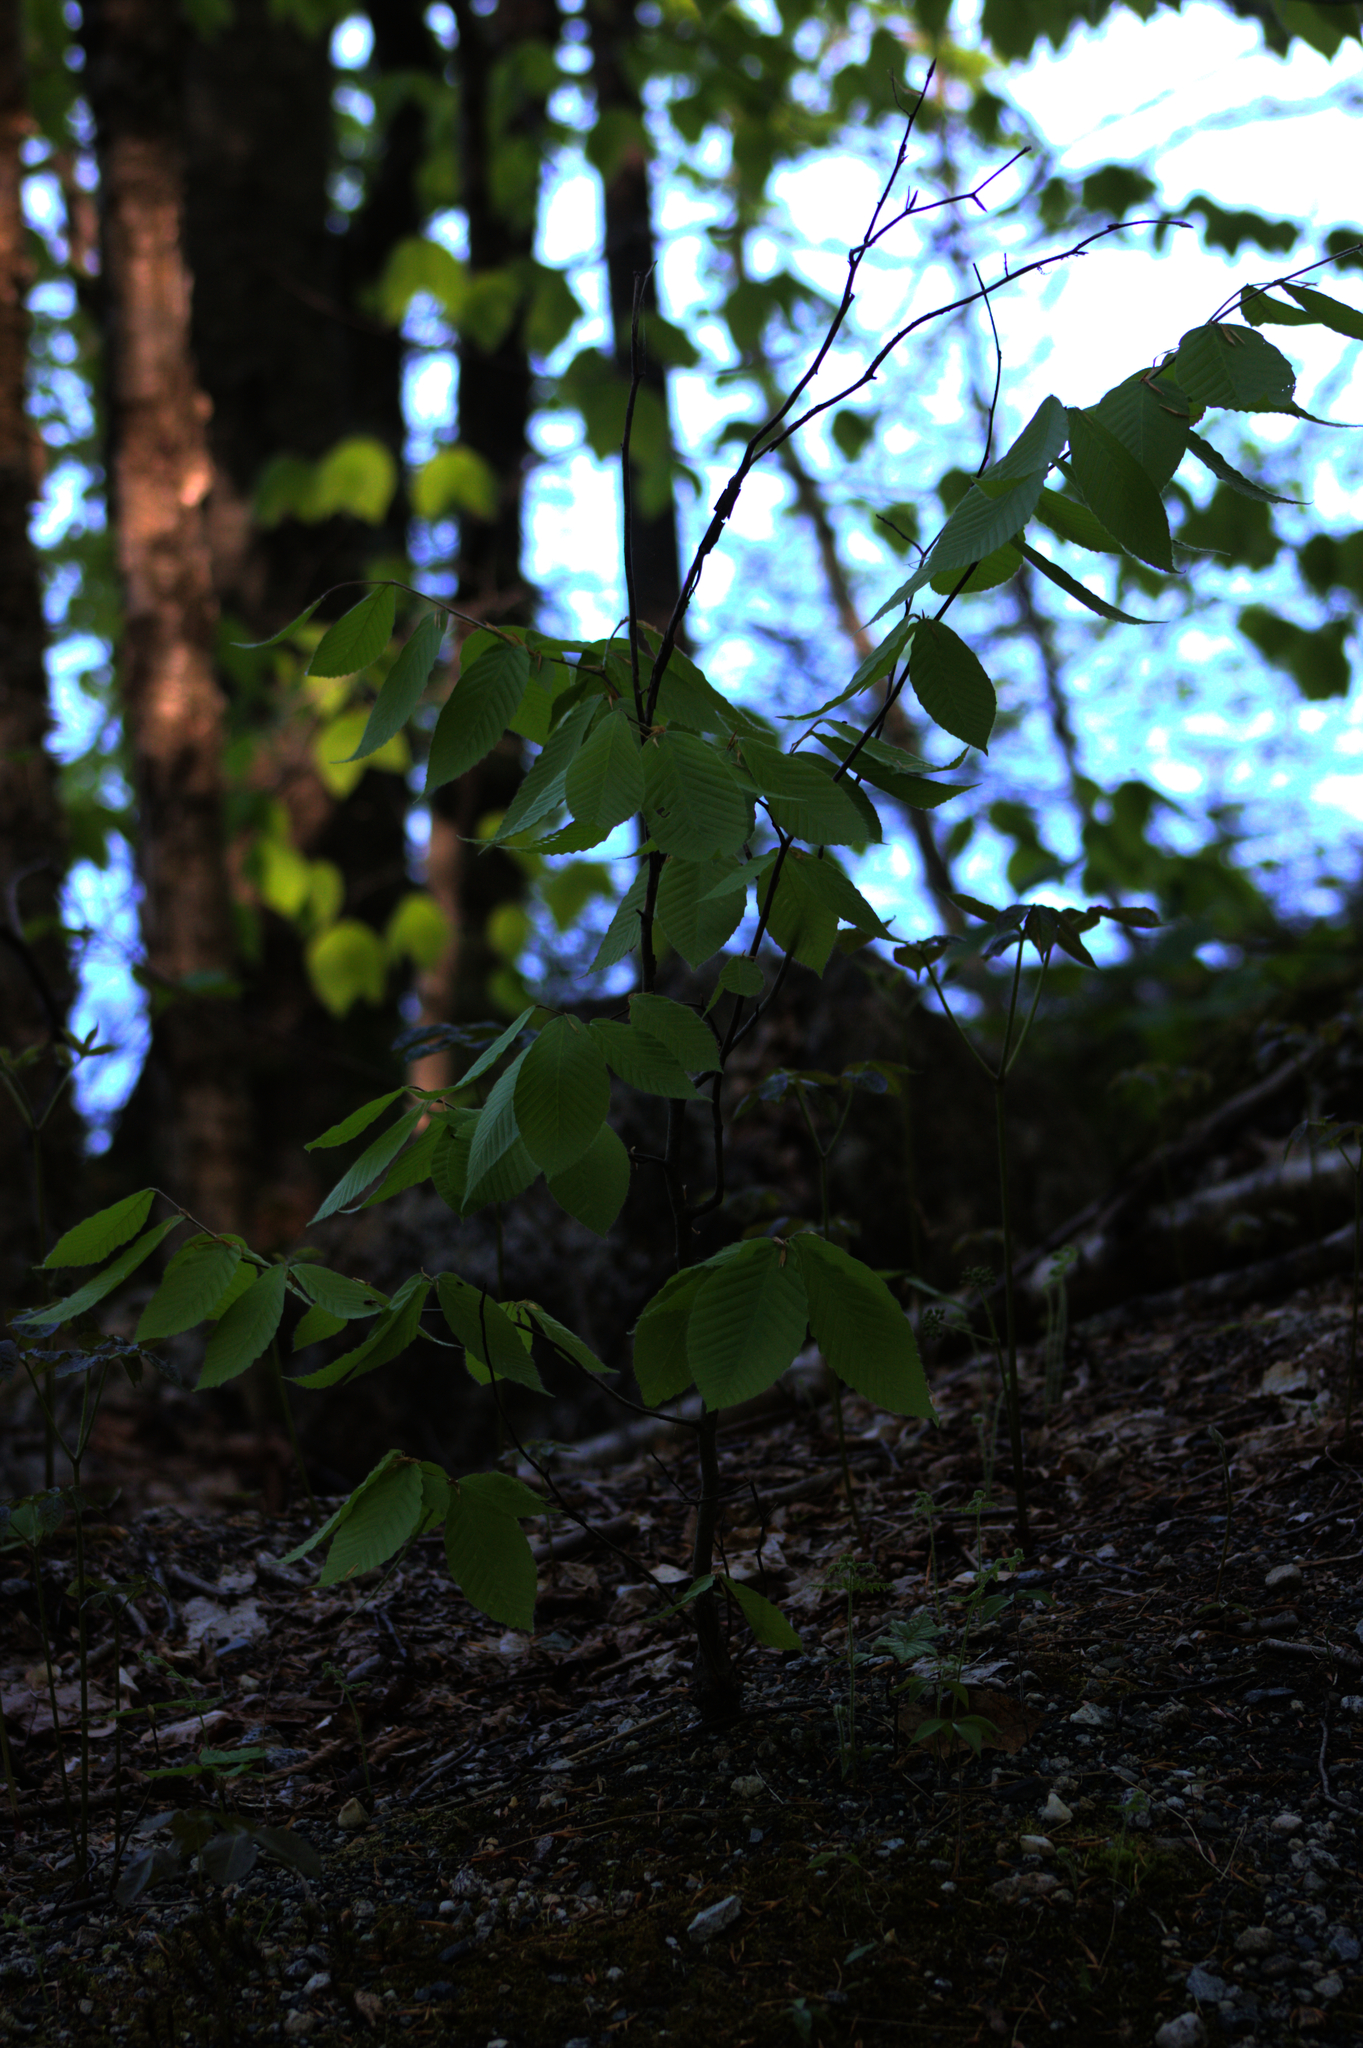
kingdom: Plantae
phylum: Tracheophyta
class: Magnoliopsida
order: Fagales
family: Fagaceae
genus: Fagus
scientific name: Fagus grandifolia
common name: American beech
